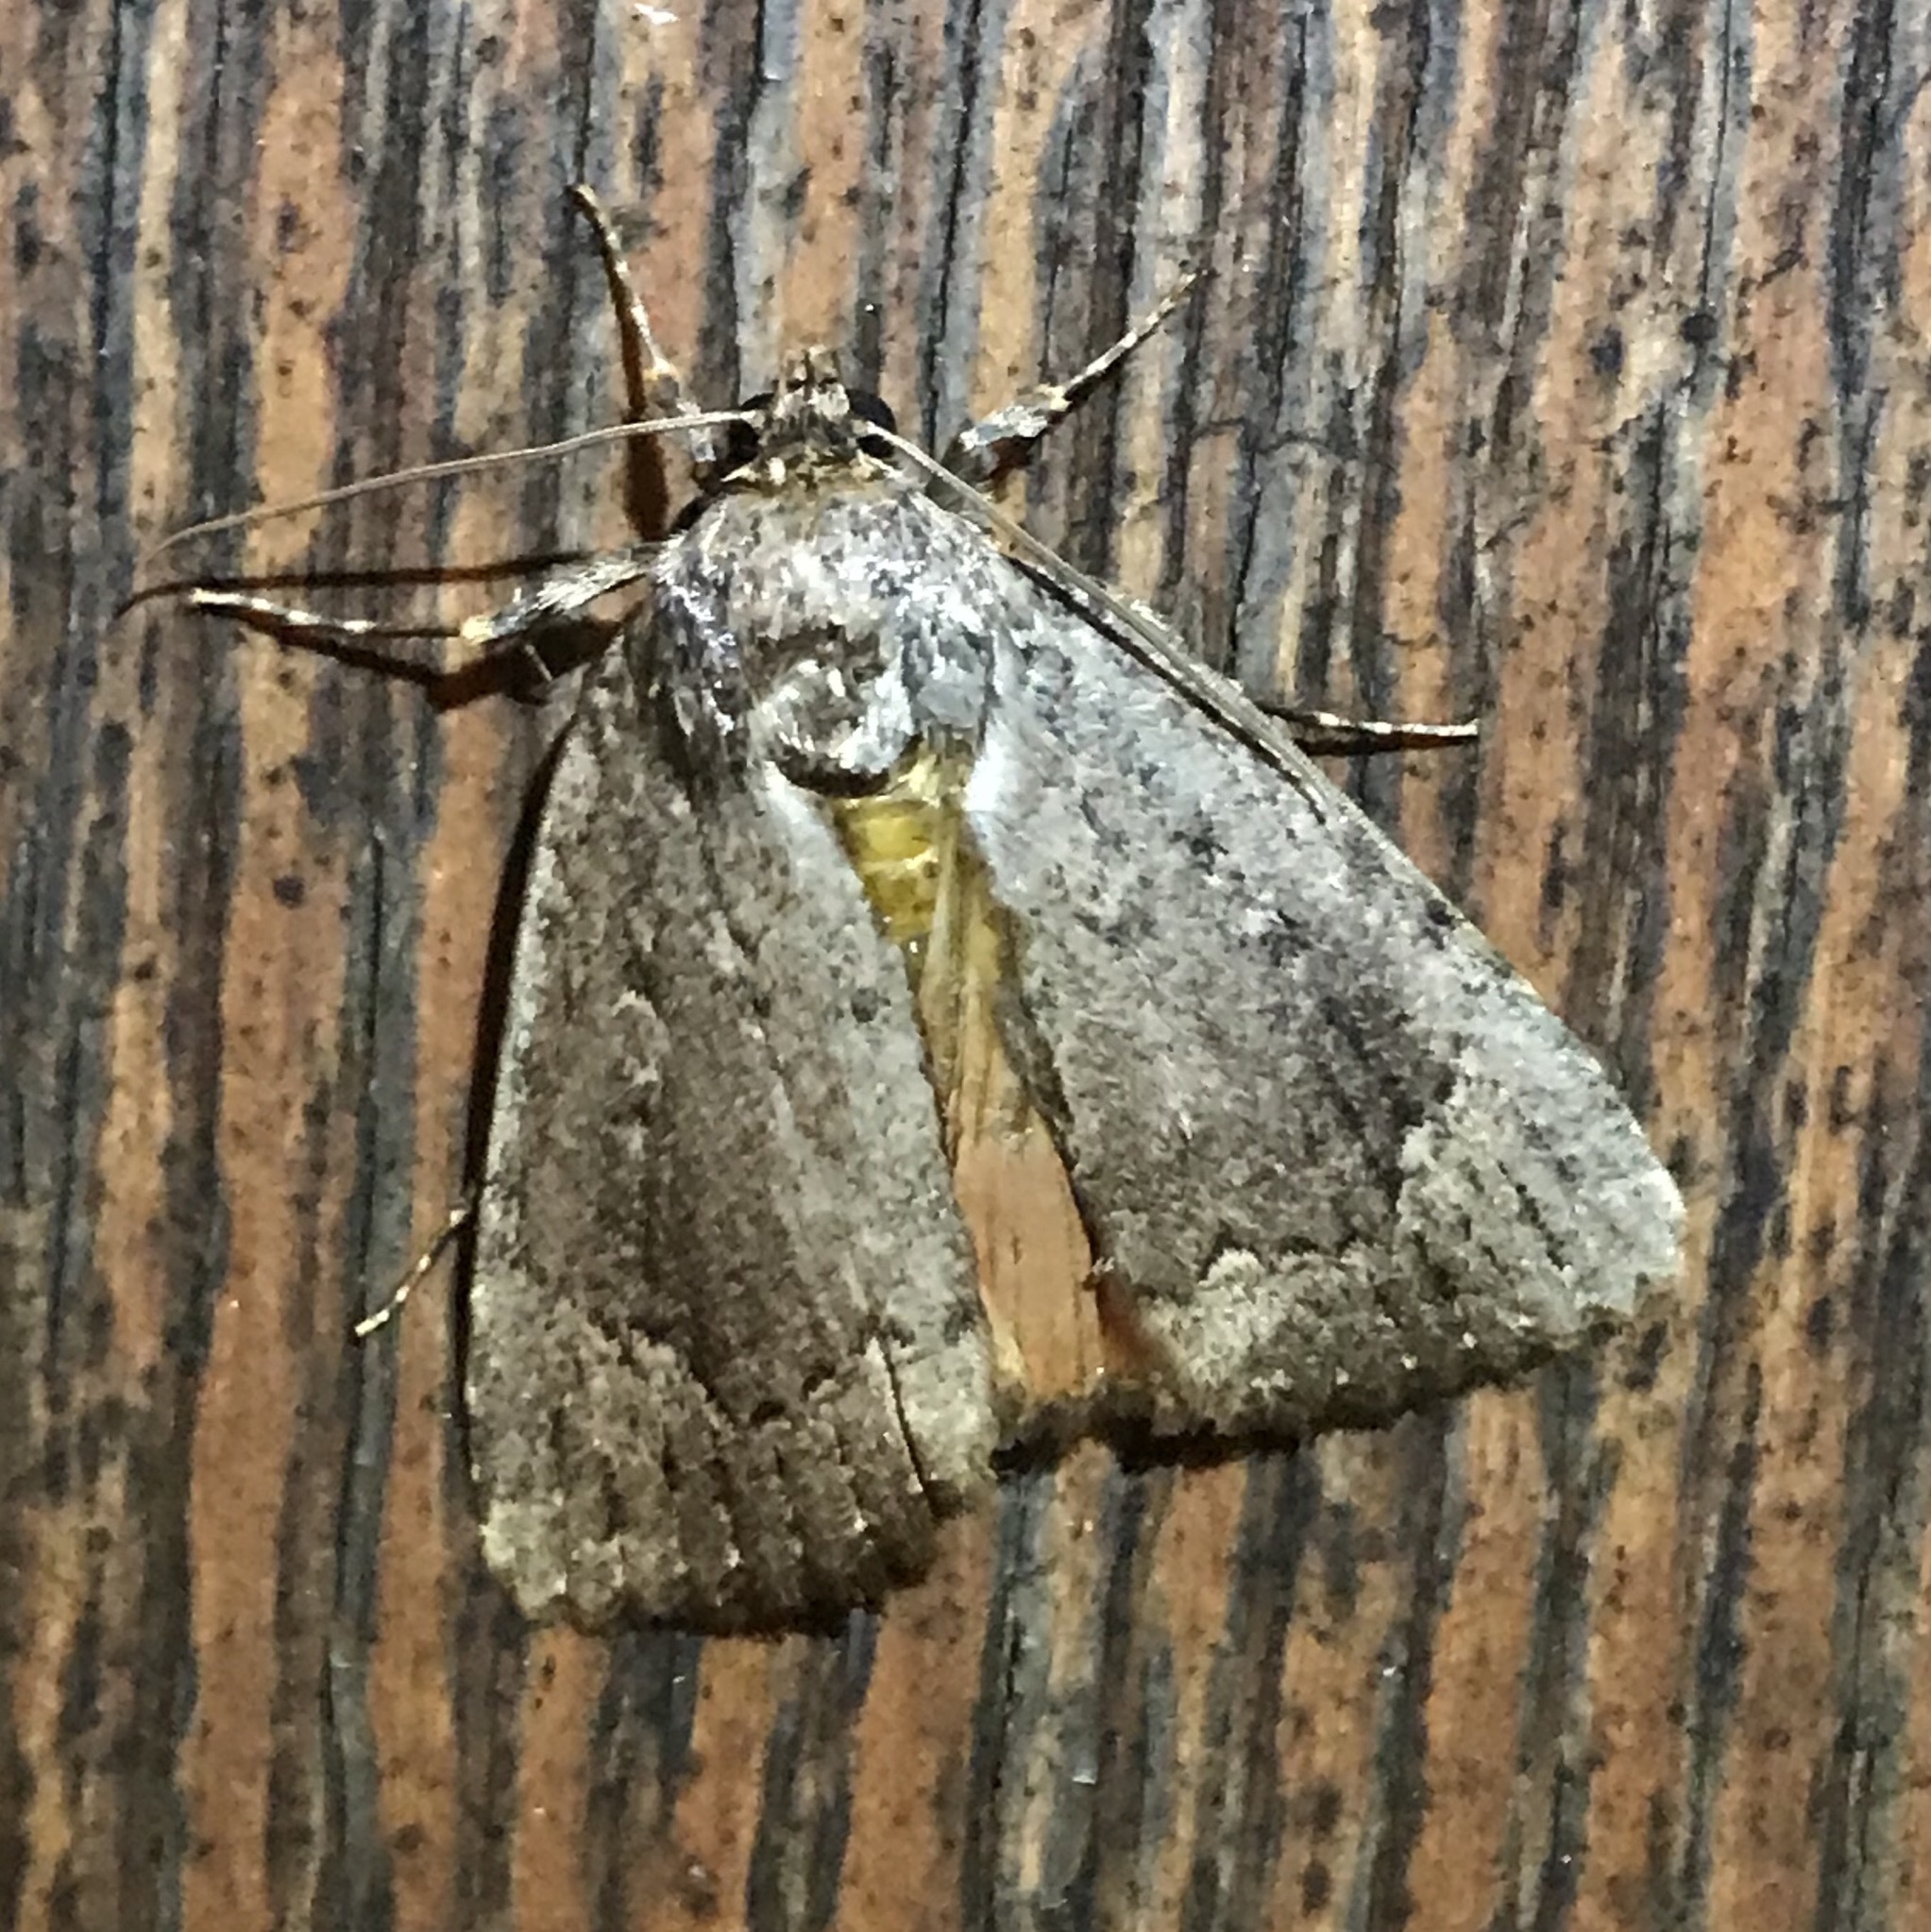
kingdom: Animalia
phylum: Arthropoda
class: Insecta
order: Lepidoptera
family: Noctuidae
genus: Amphipyra
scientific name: Amphipyra pyramidoides
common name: American copper underwing
